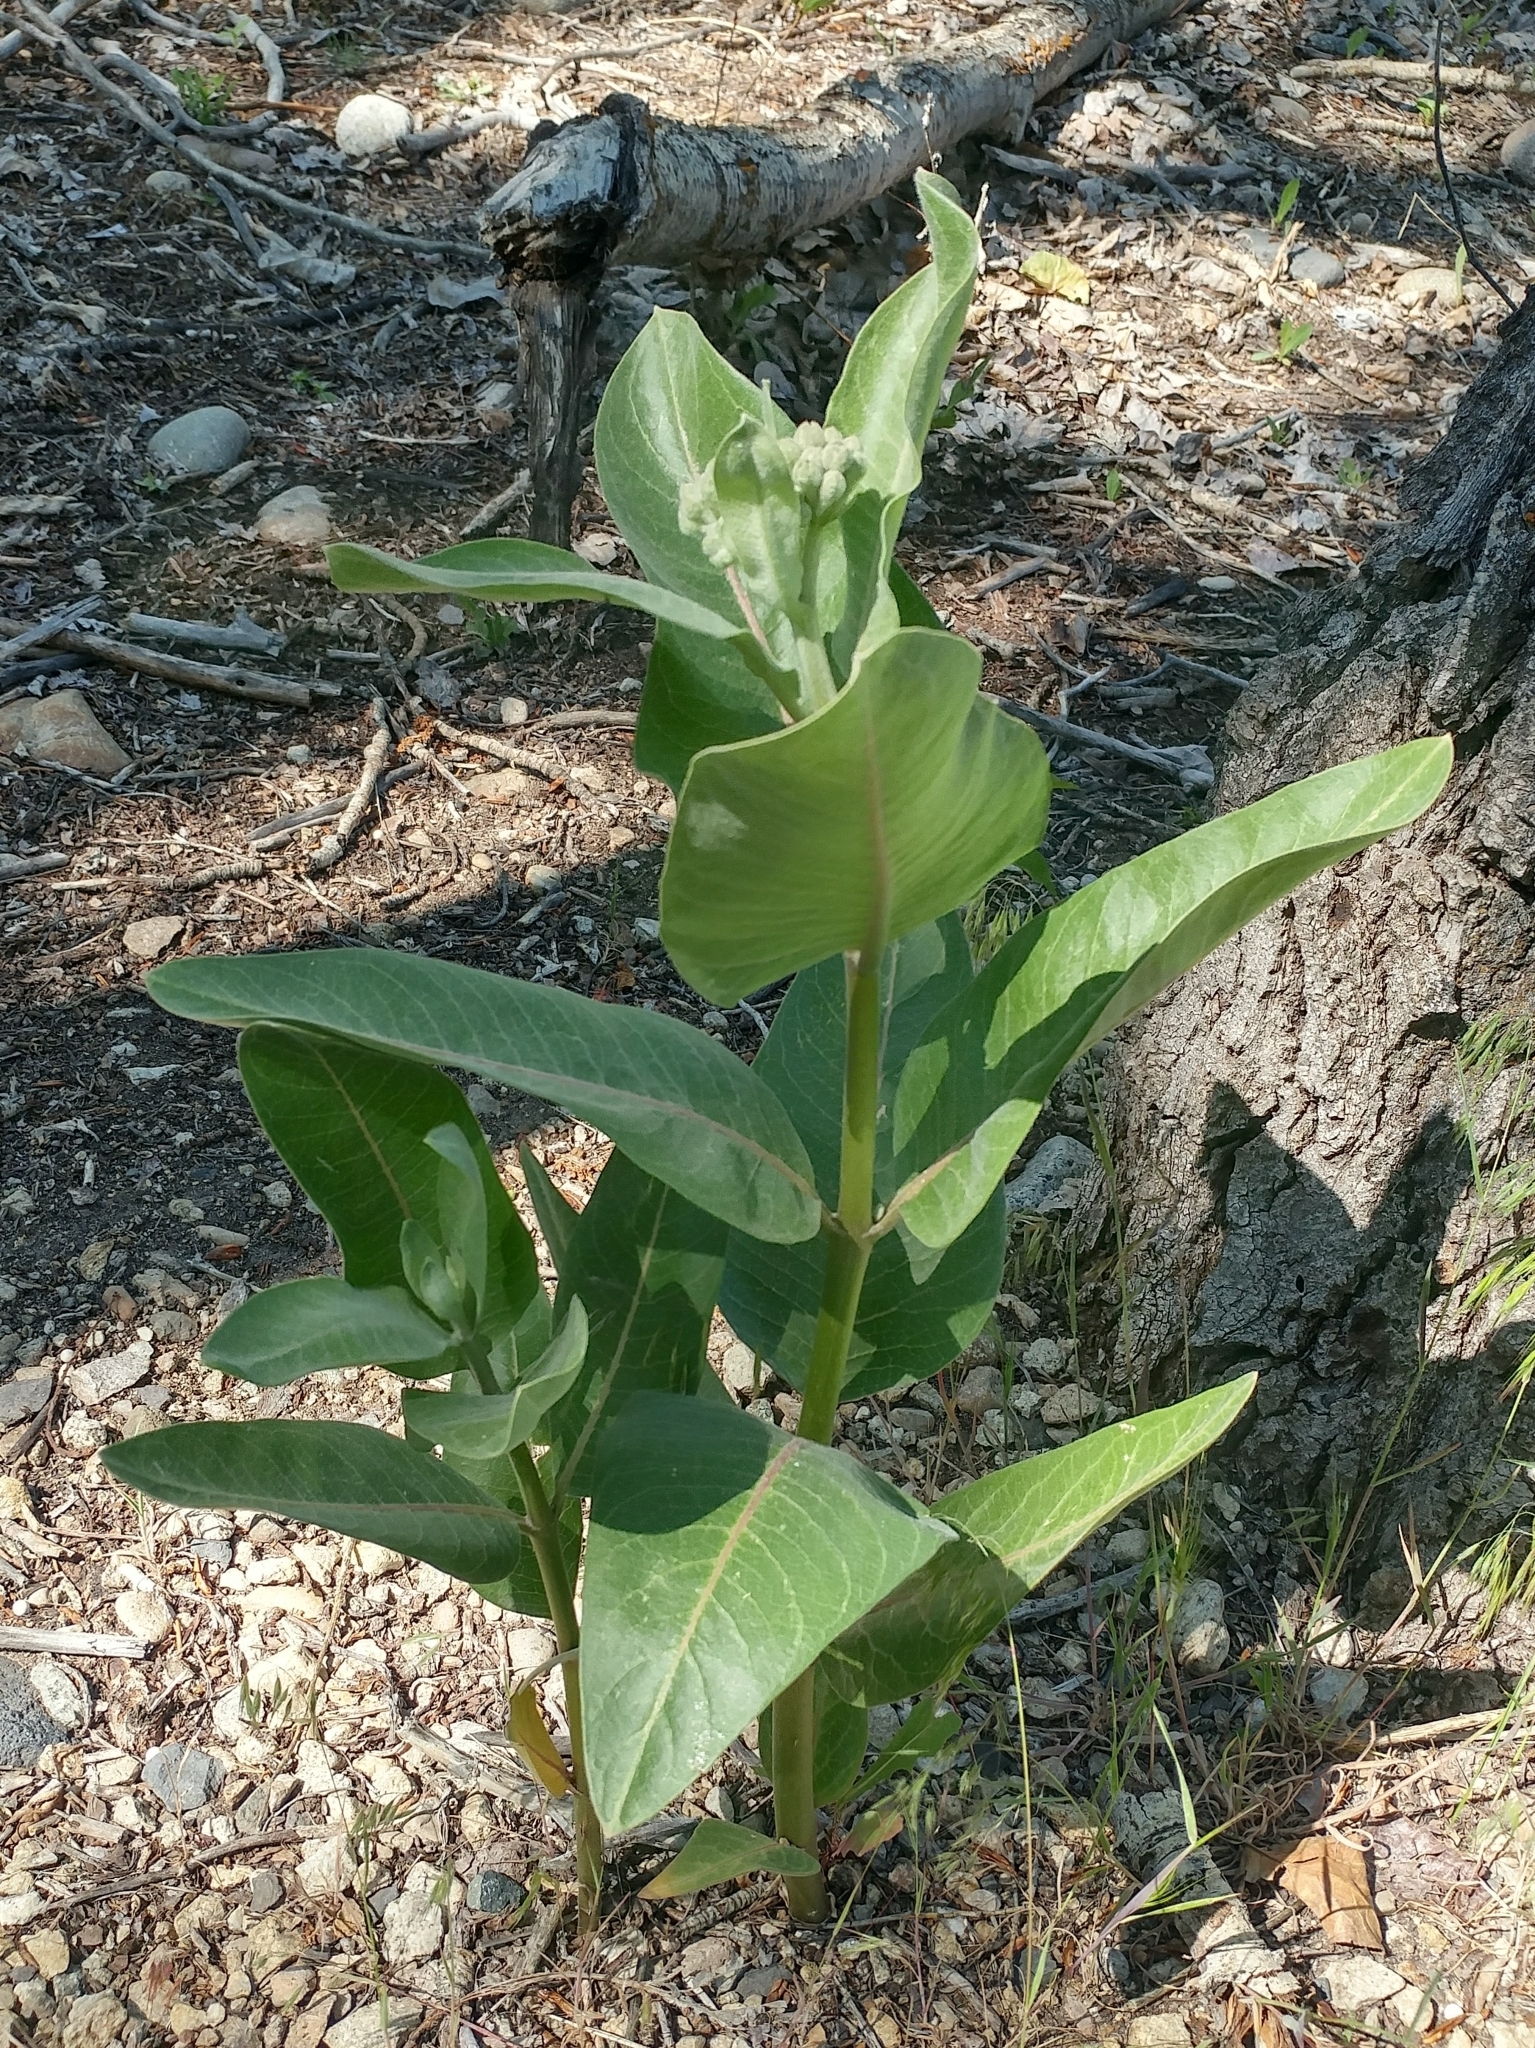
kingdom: Plantae
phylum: Tracheophyta
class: Magnoliopsida
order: Gentianales
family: Apocynaceae
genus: Asclepias
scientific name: Asclepias speciosa
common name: Showy milkweed
